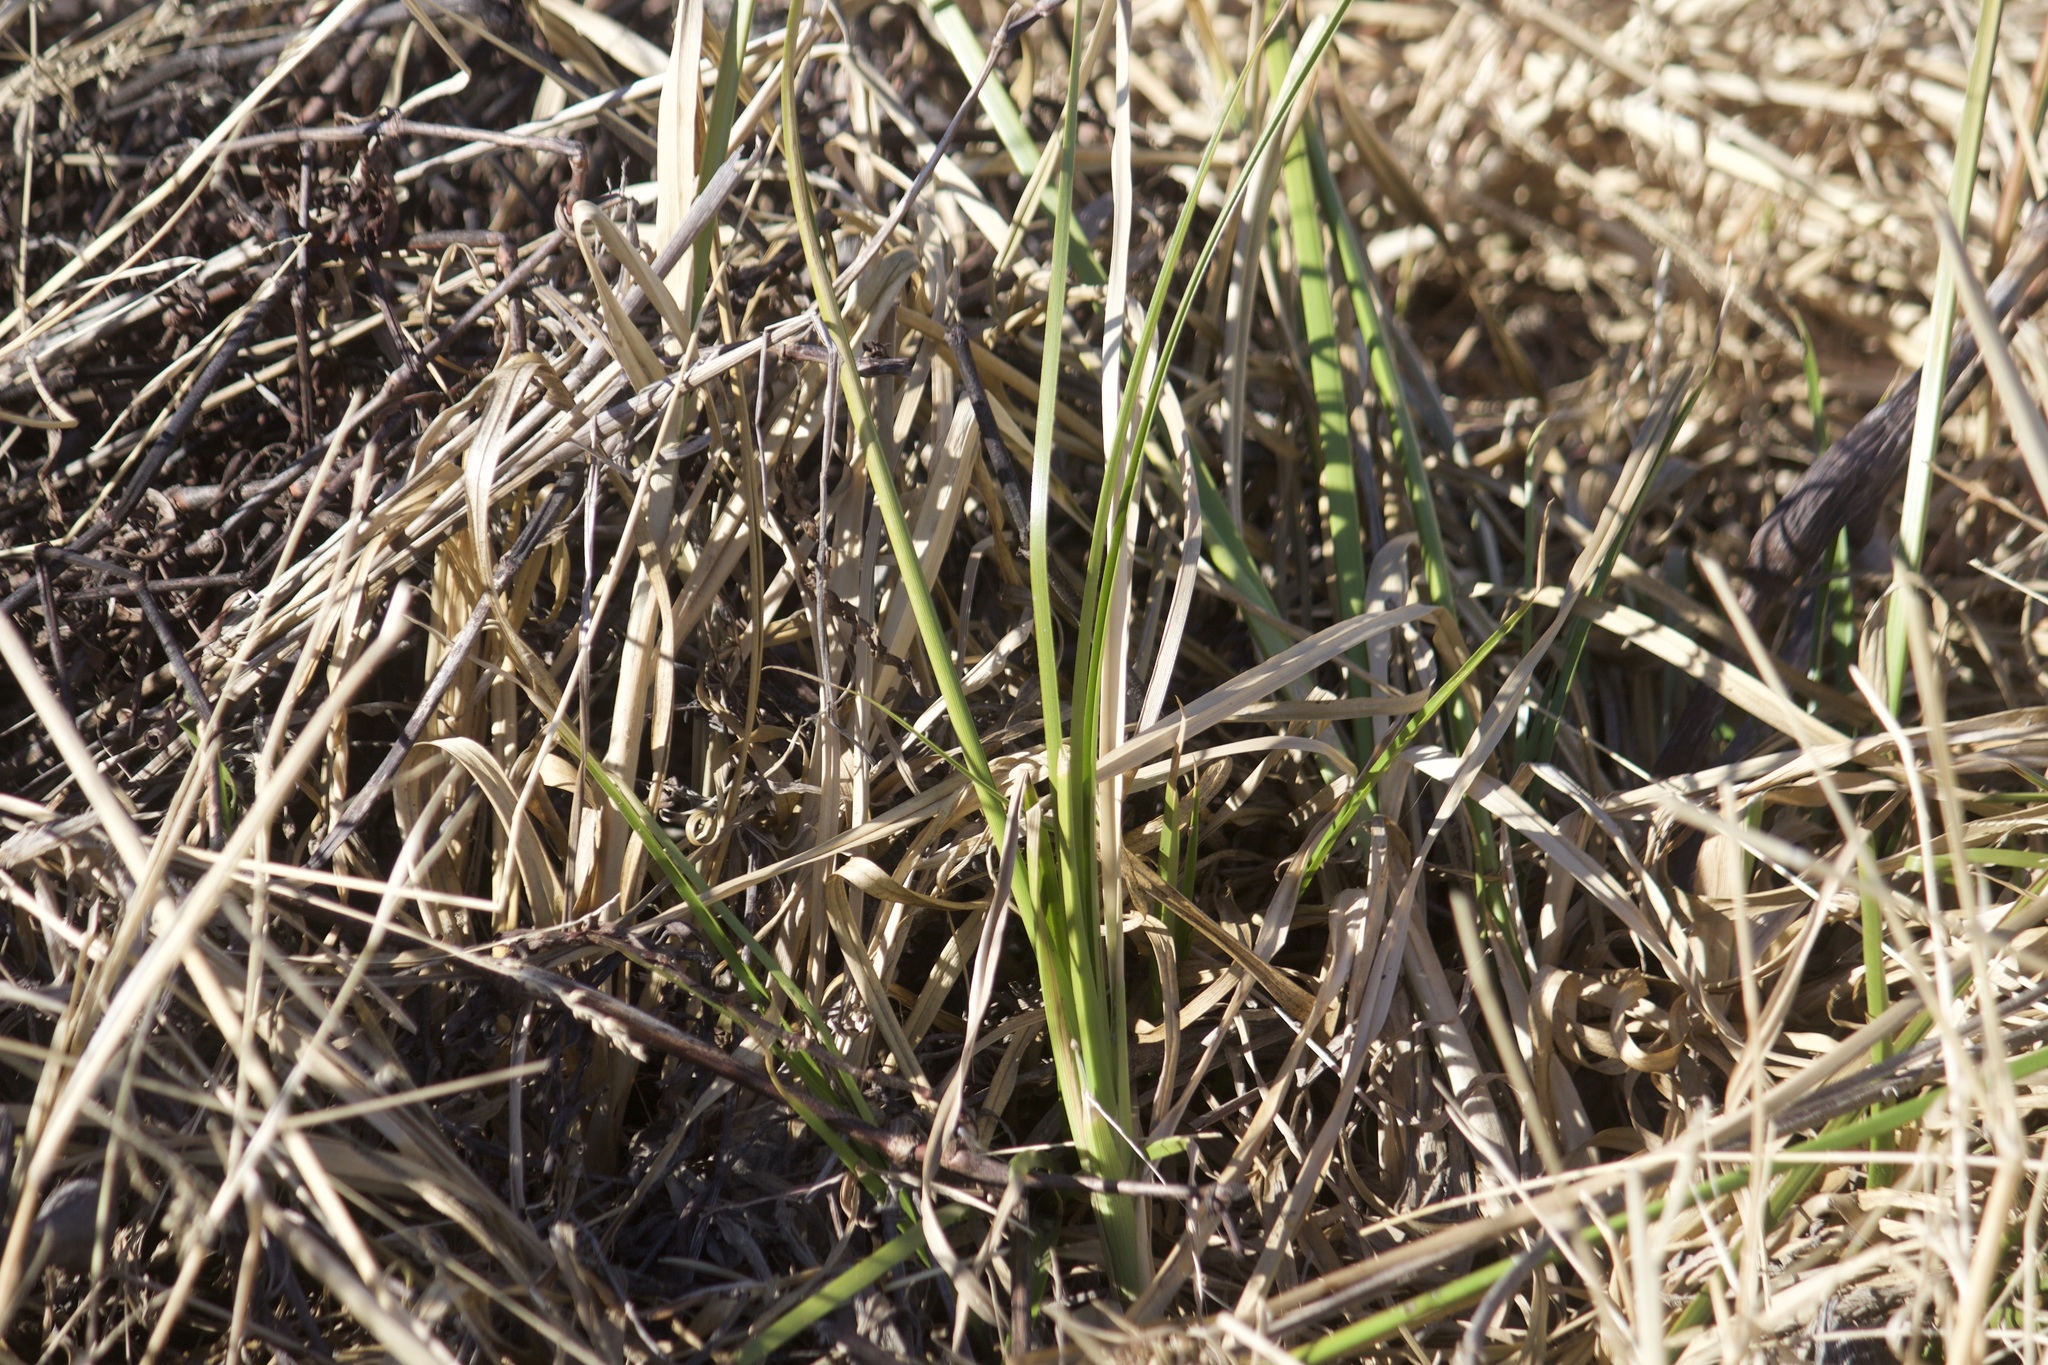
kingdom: Plantae
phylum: Tracheophyta
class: Liliopsida
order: Poales
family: Typhaceae
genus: Typha
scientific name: Typha latifolia
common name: Broadleaf cattail
